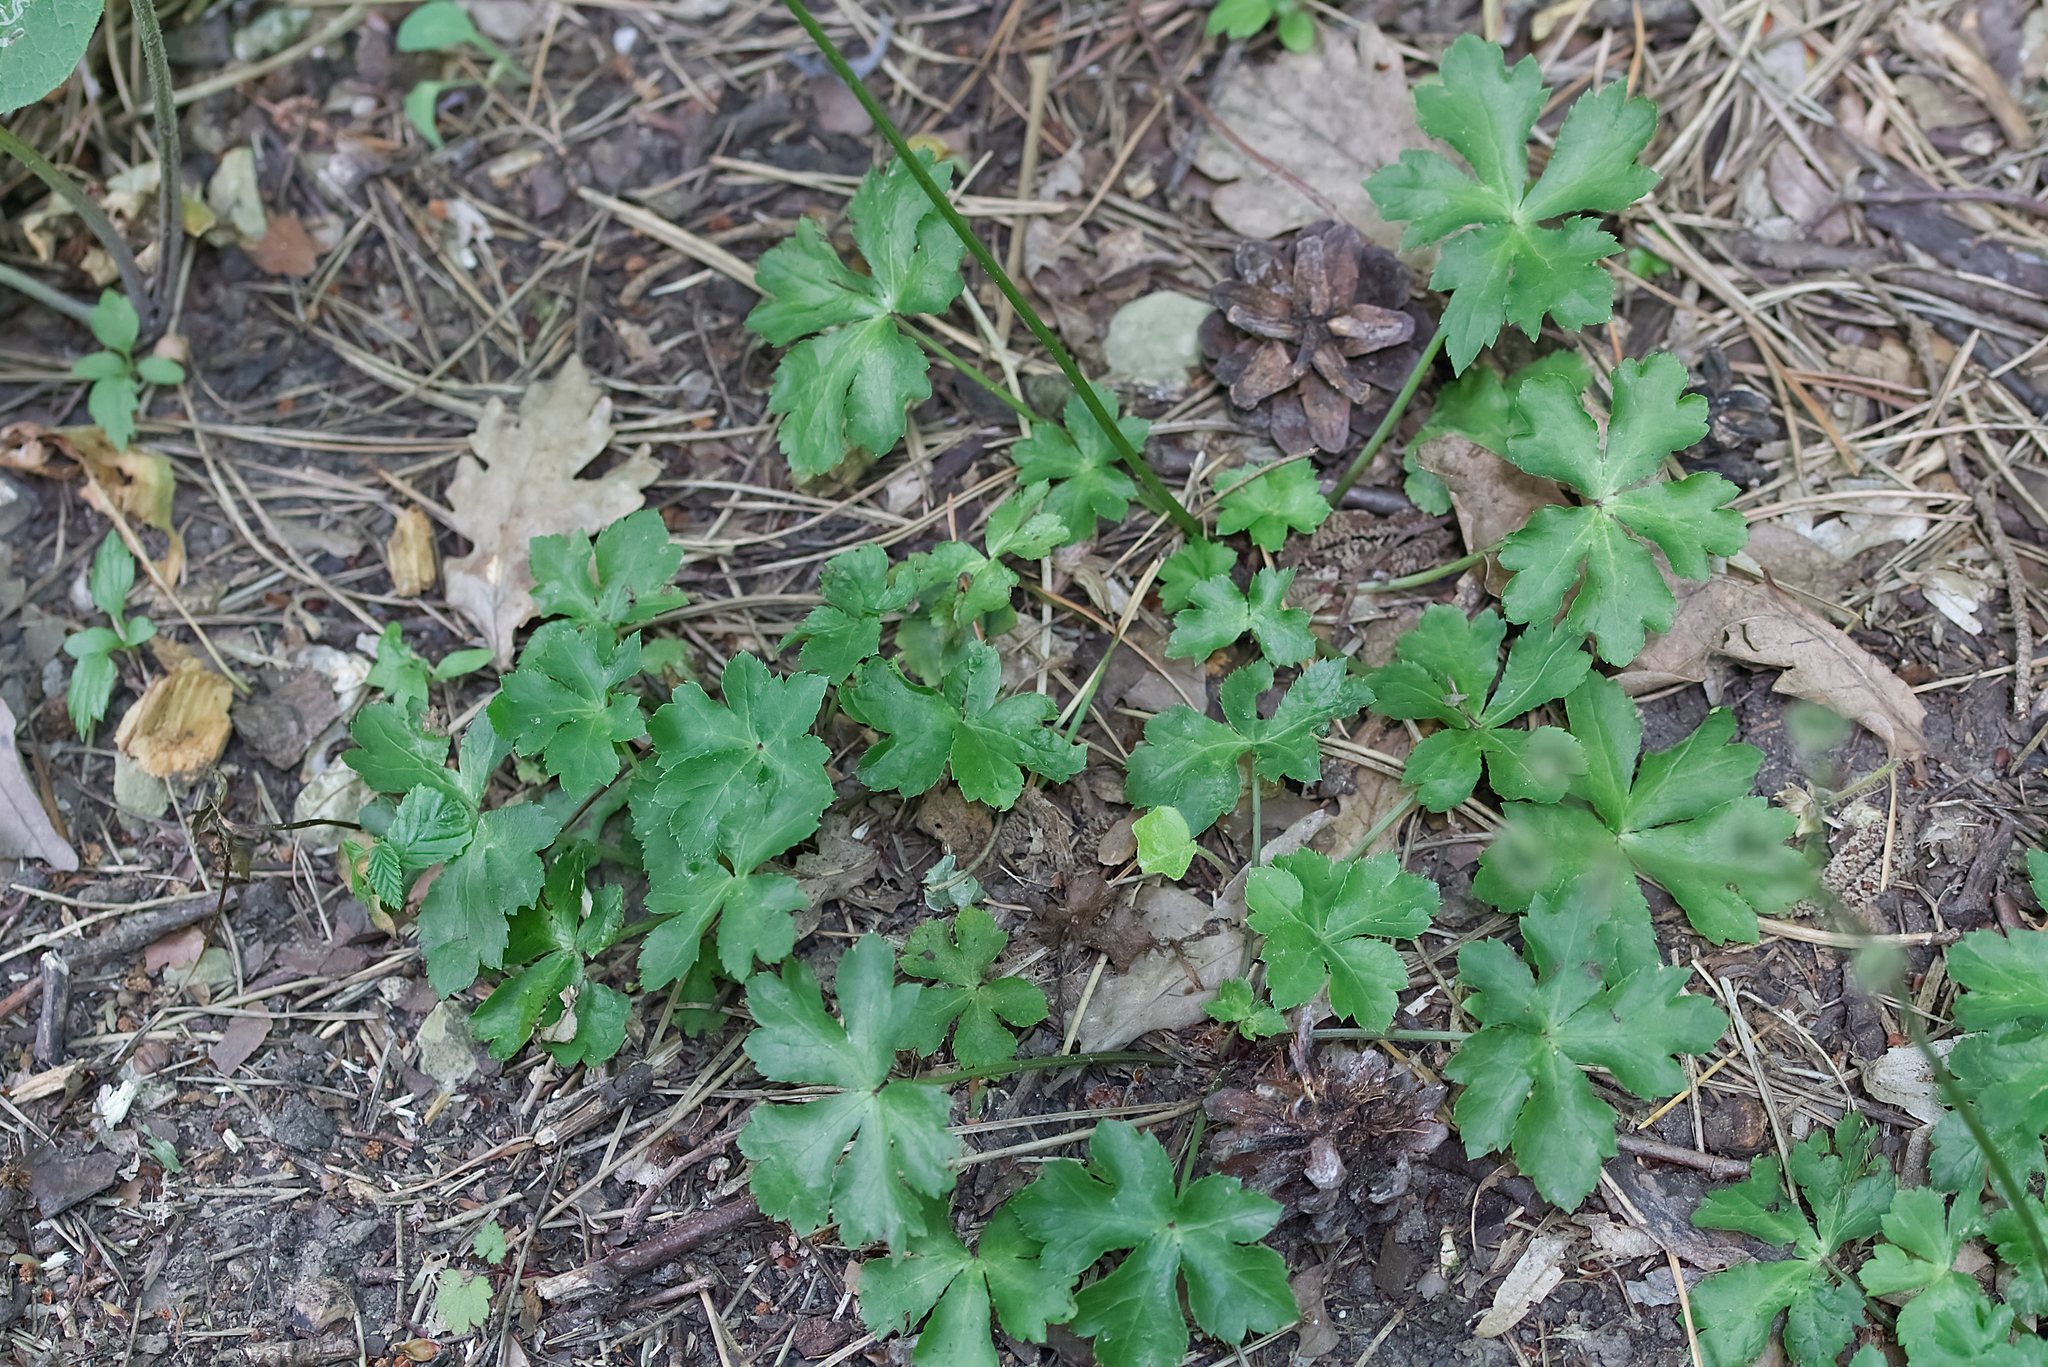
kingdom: Plantae
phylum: Tracheophyta
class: Magnoliopsida
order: Apiales
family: Apiaceae
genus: Sanicula
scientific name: Sanicula europaea
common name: Sanicle
